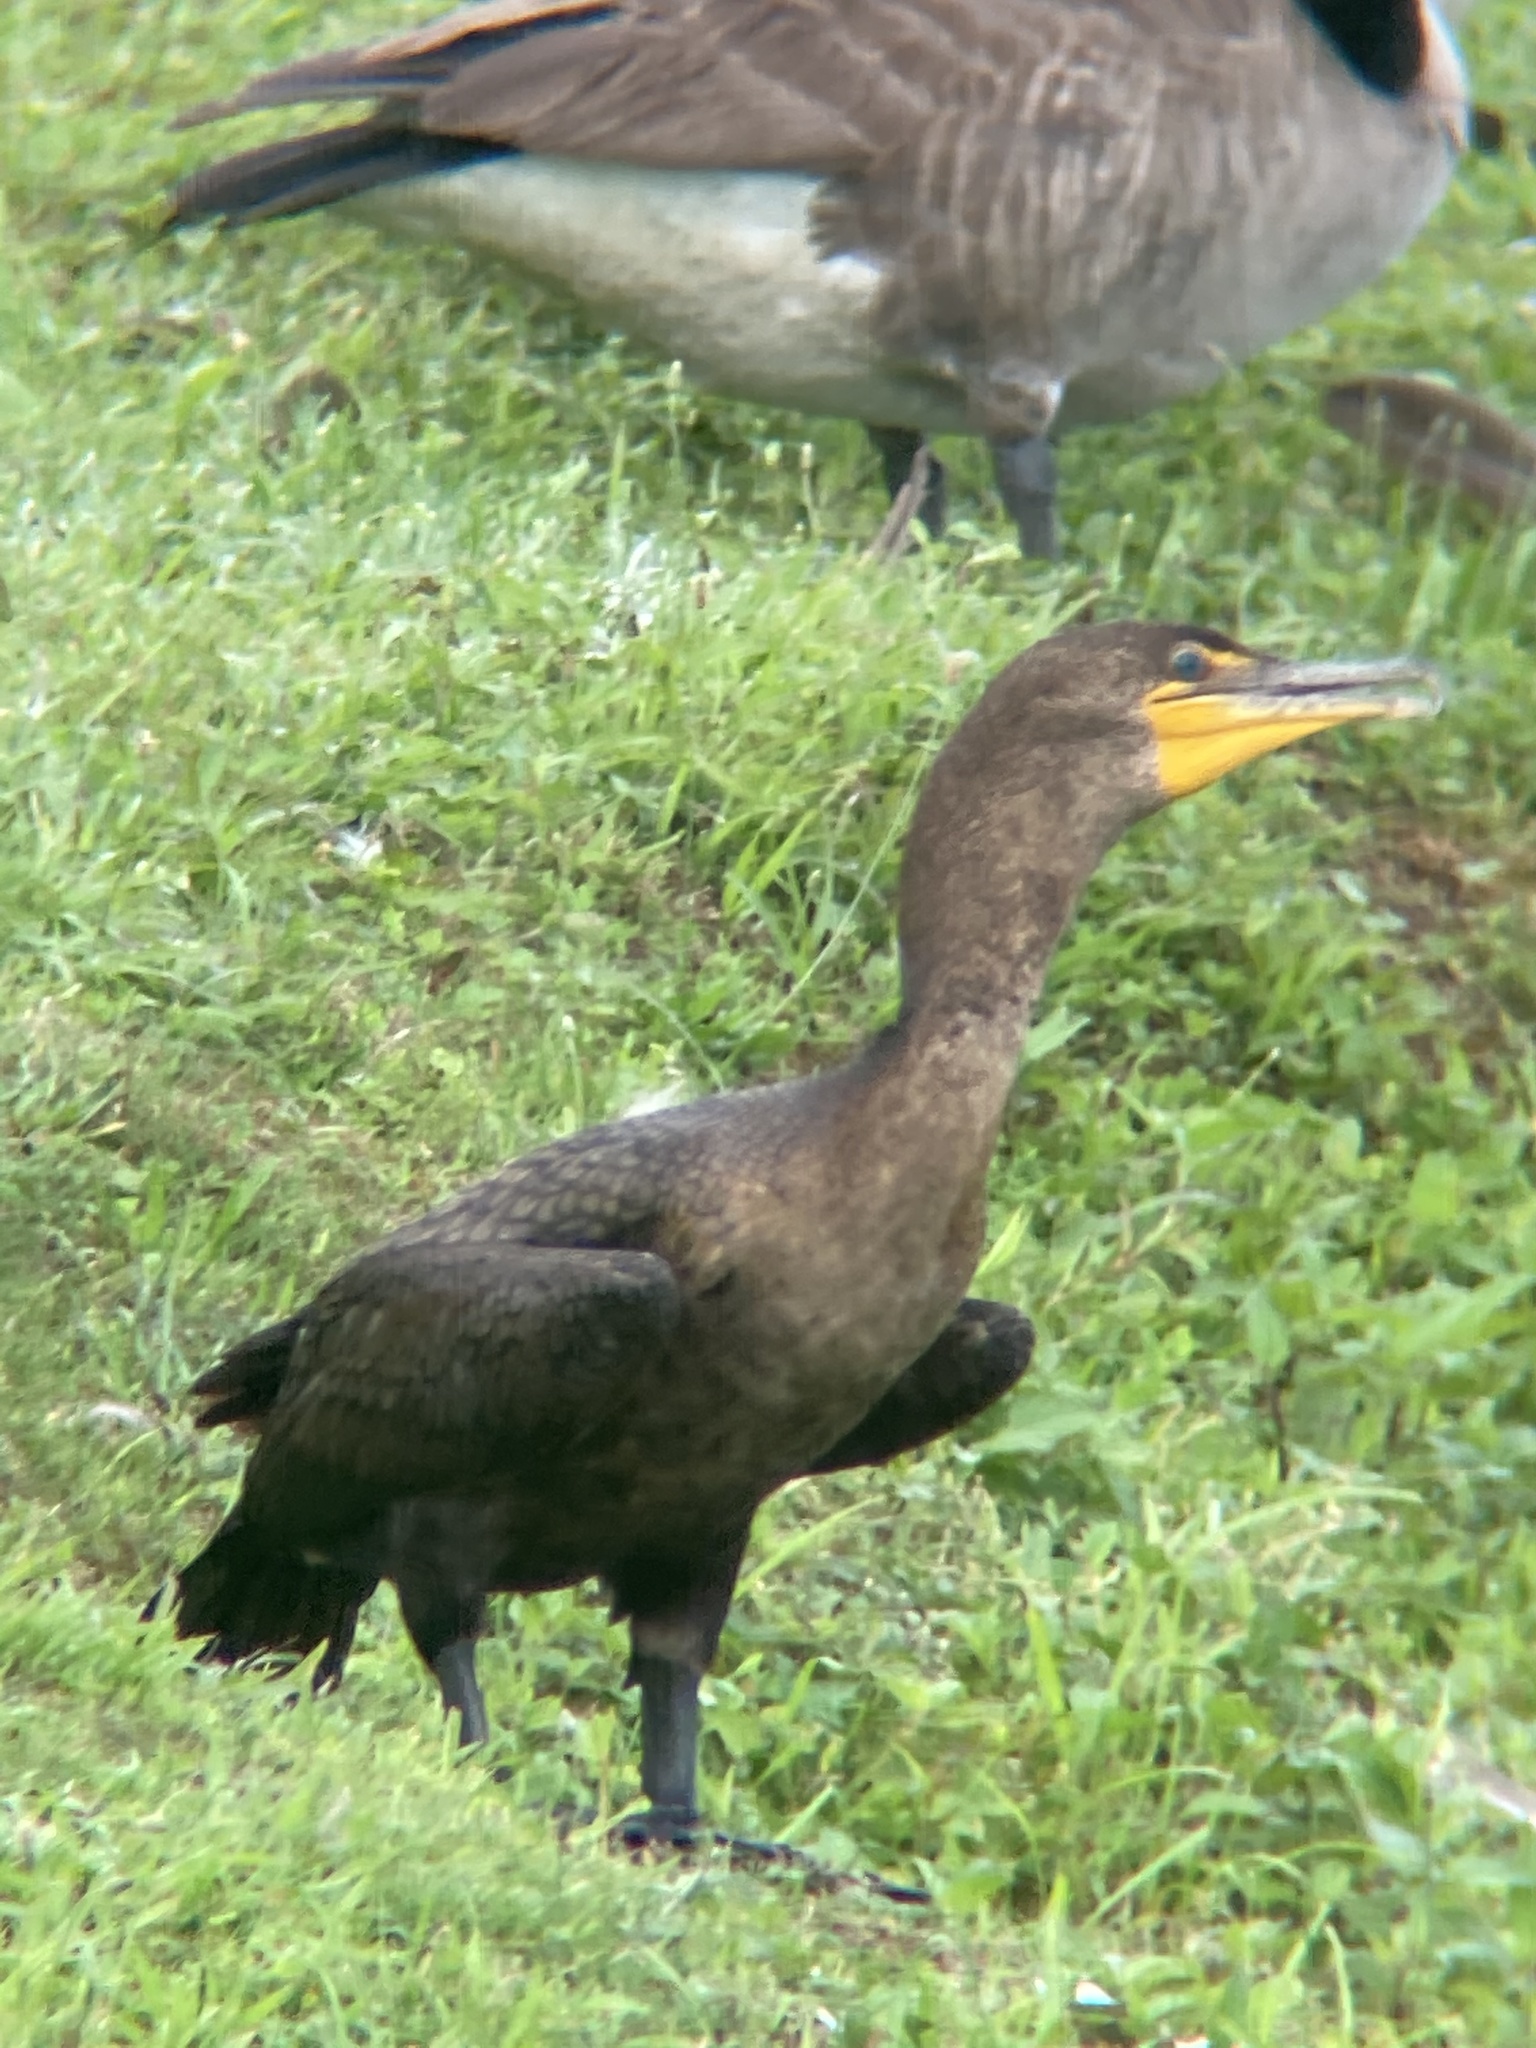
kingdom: Animalia
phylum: Chordata
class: Aves
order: Suliformes
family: Phalacrocoracidae
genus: Phalacrocorax
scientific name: Phalacrocorax auritus
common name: Double-crested cormorant
